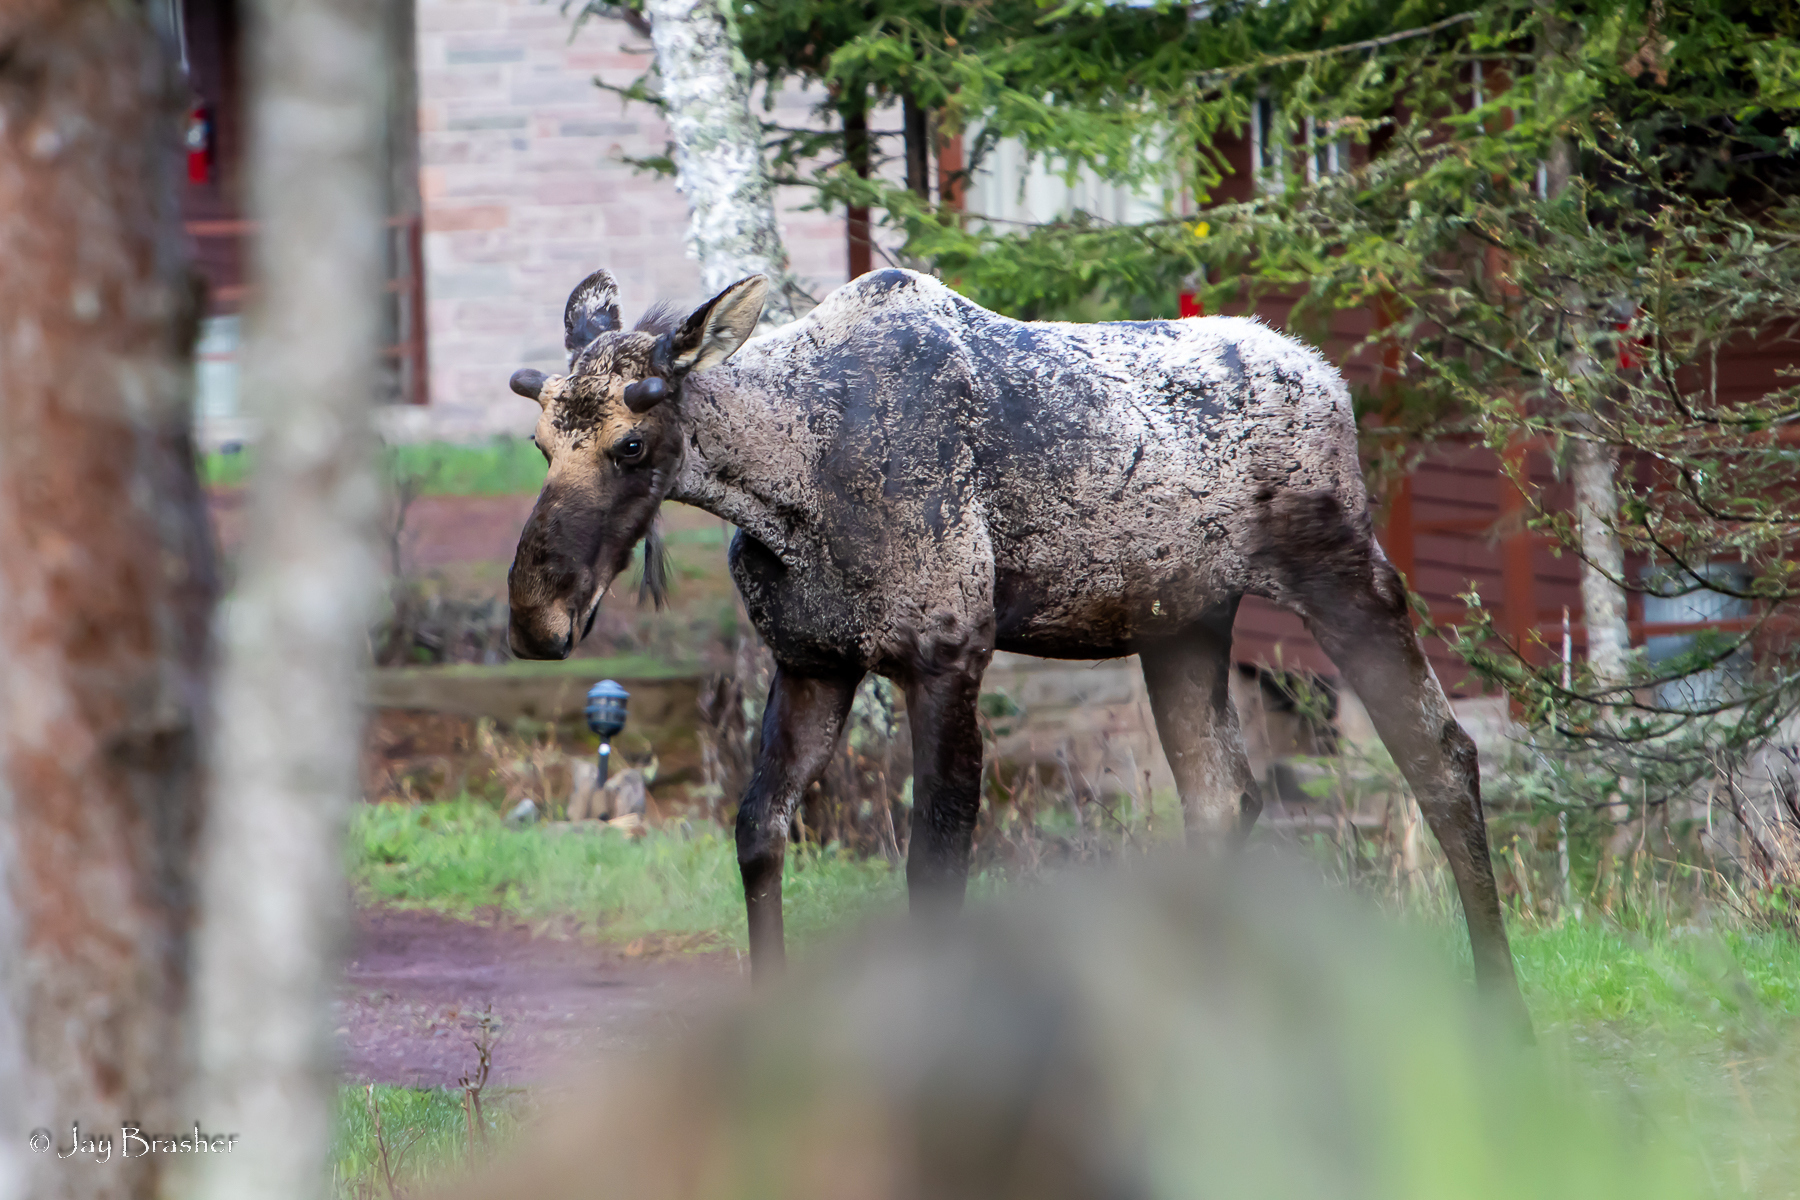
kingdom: Animalia
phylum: Chordata
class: Mammalia
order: Artiodactyla
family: Cervidae
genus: Alces
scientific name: Alces americanus
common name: Moose
